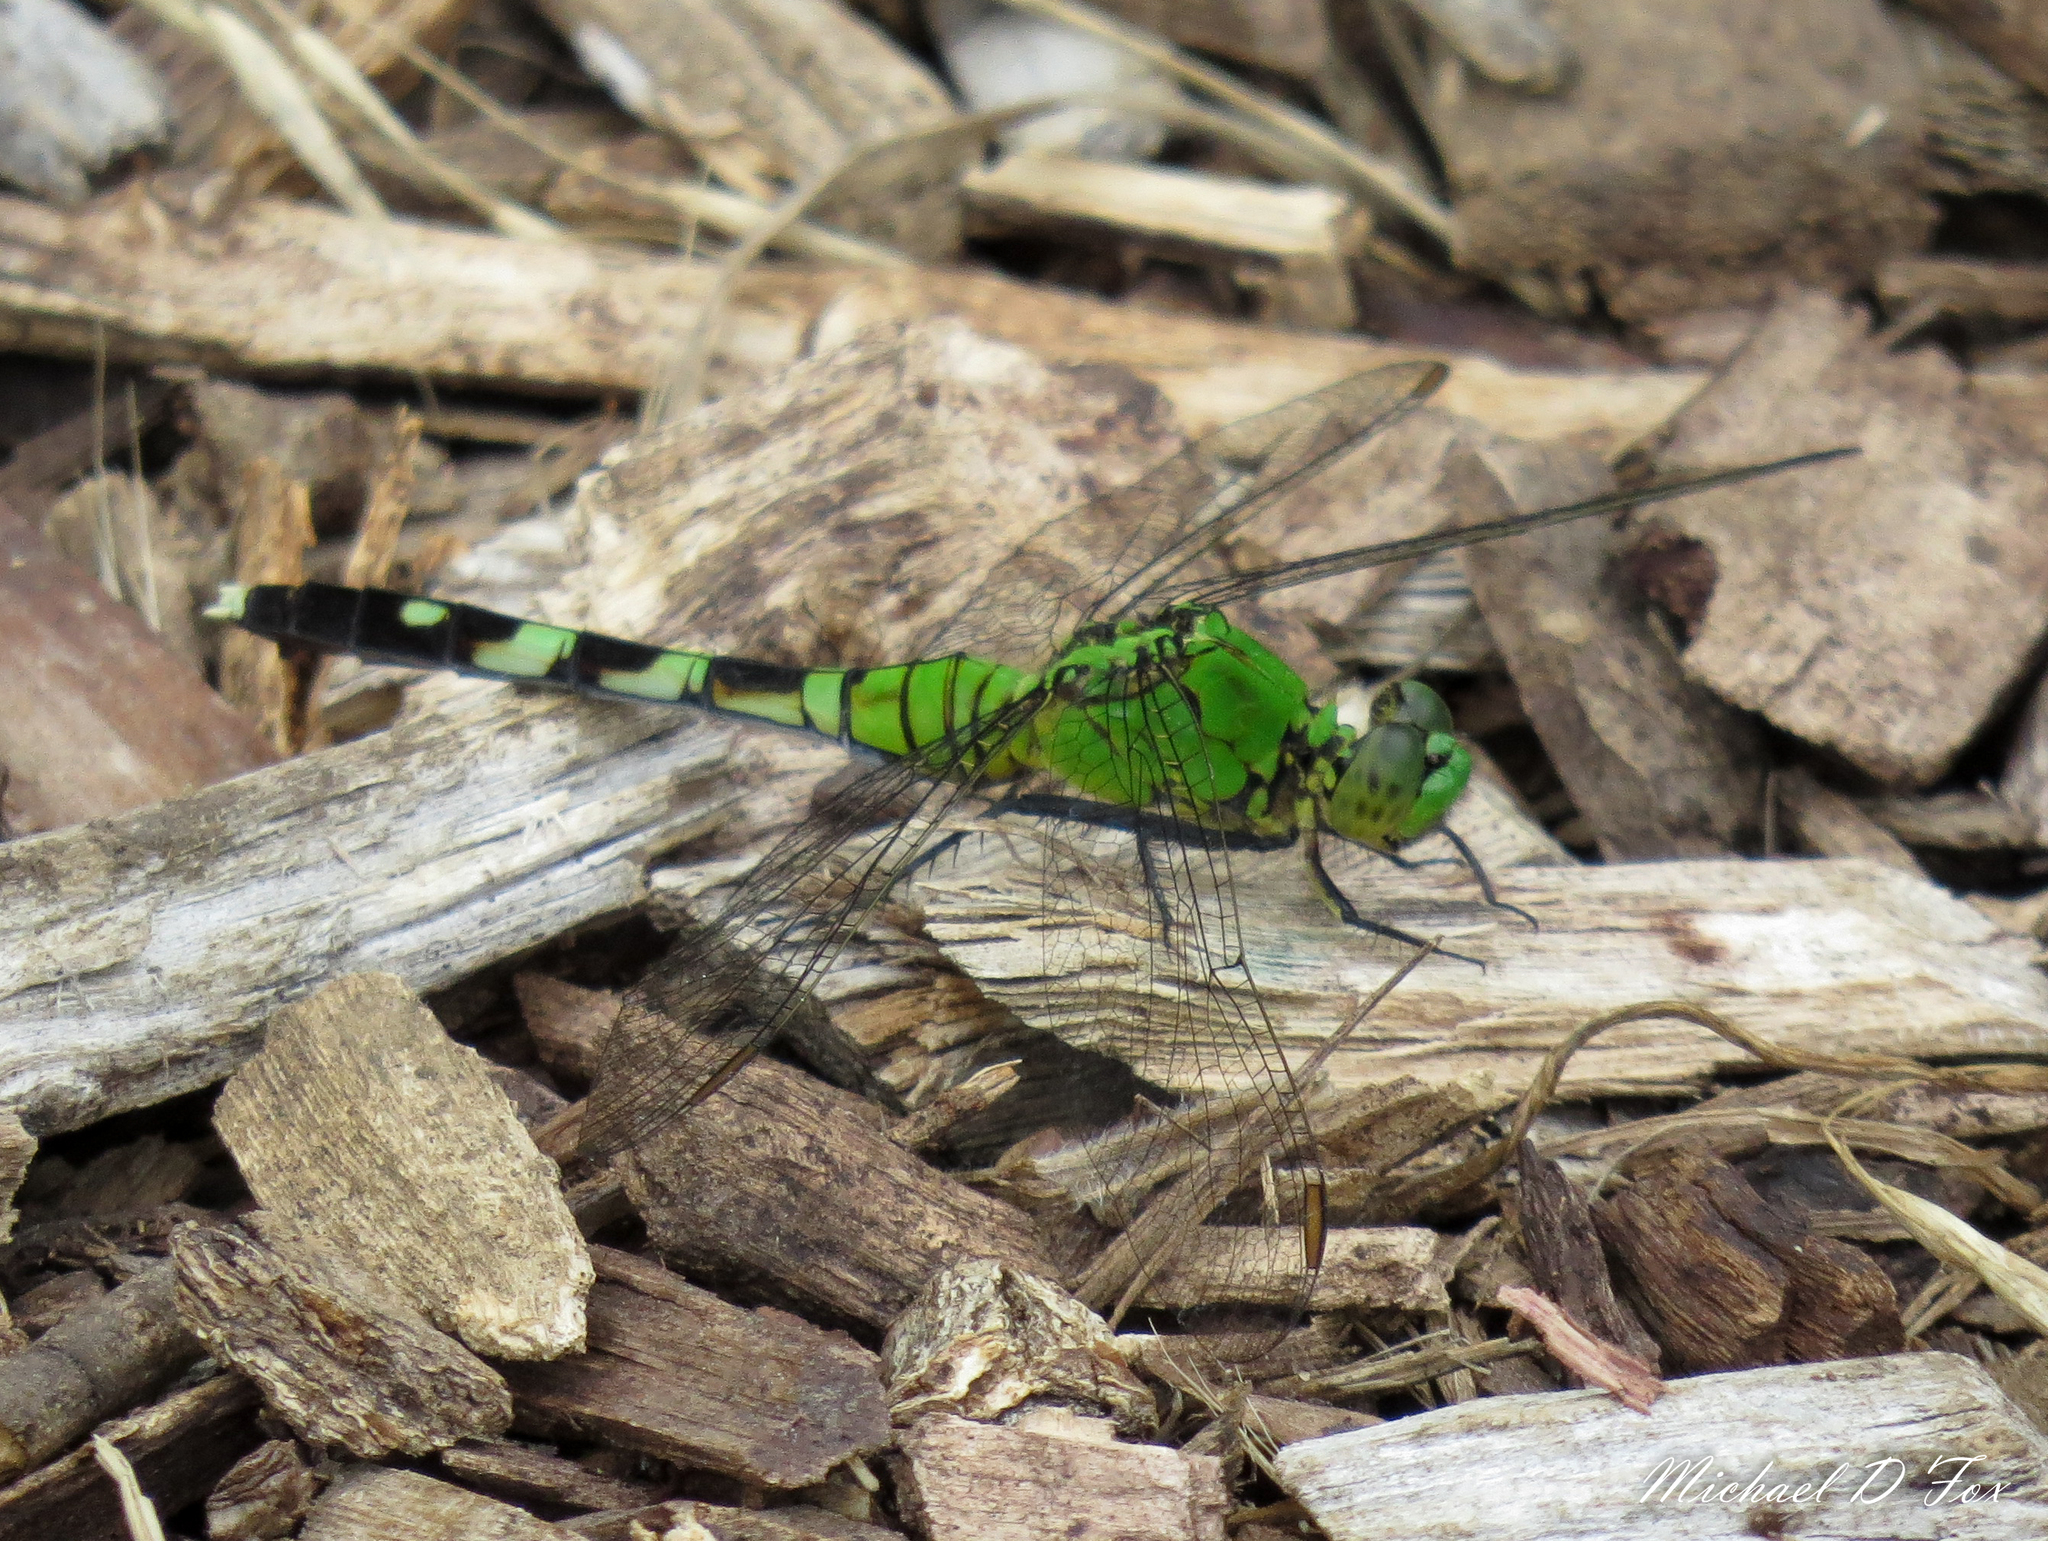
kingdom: Animalia
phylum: Arthropoda
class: Insecta
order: Odonata
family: Libellulidae
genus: Erythemis
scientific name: Erythemis simplicicollis
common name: Eastern pondhawk
